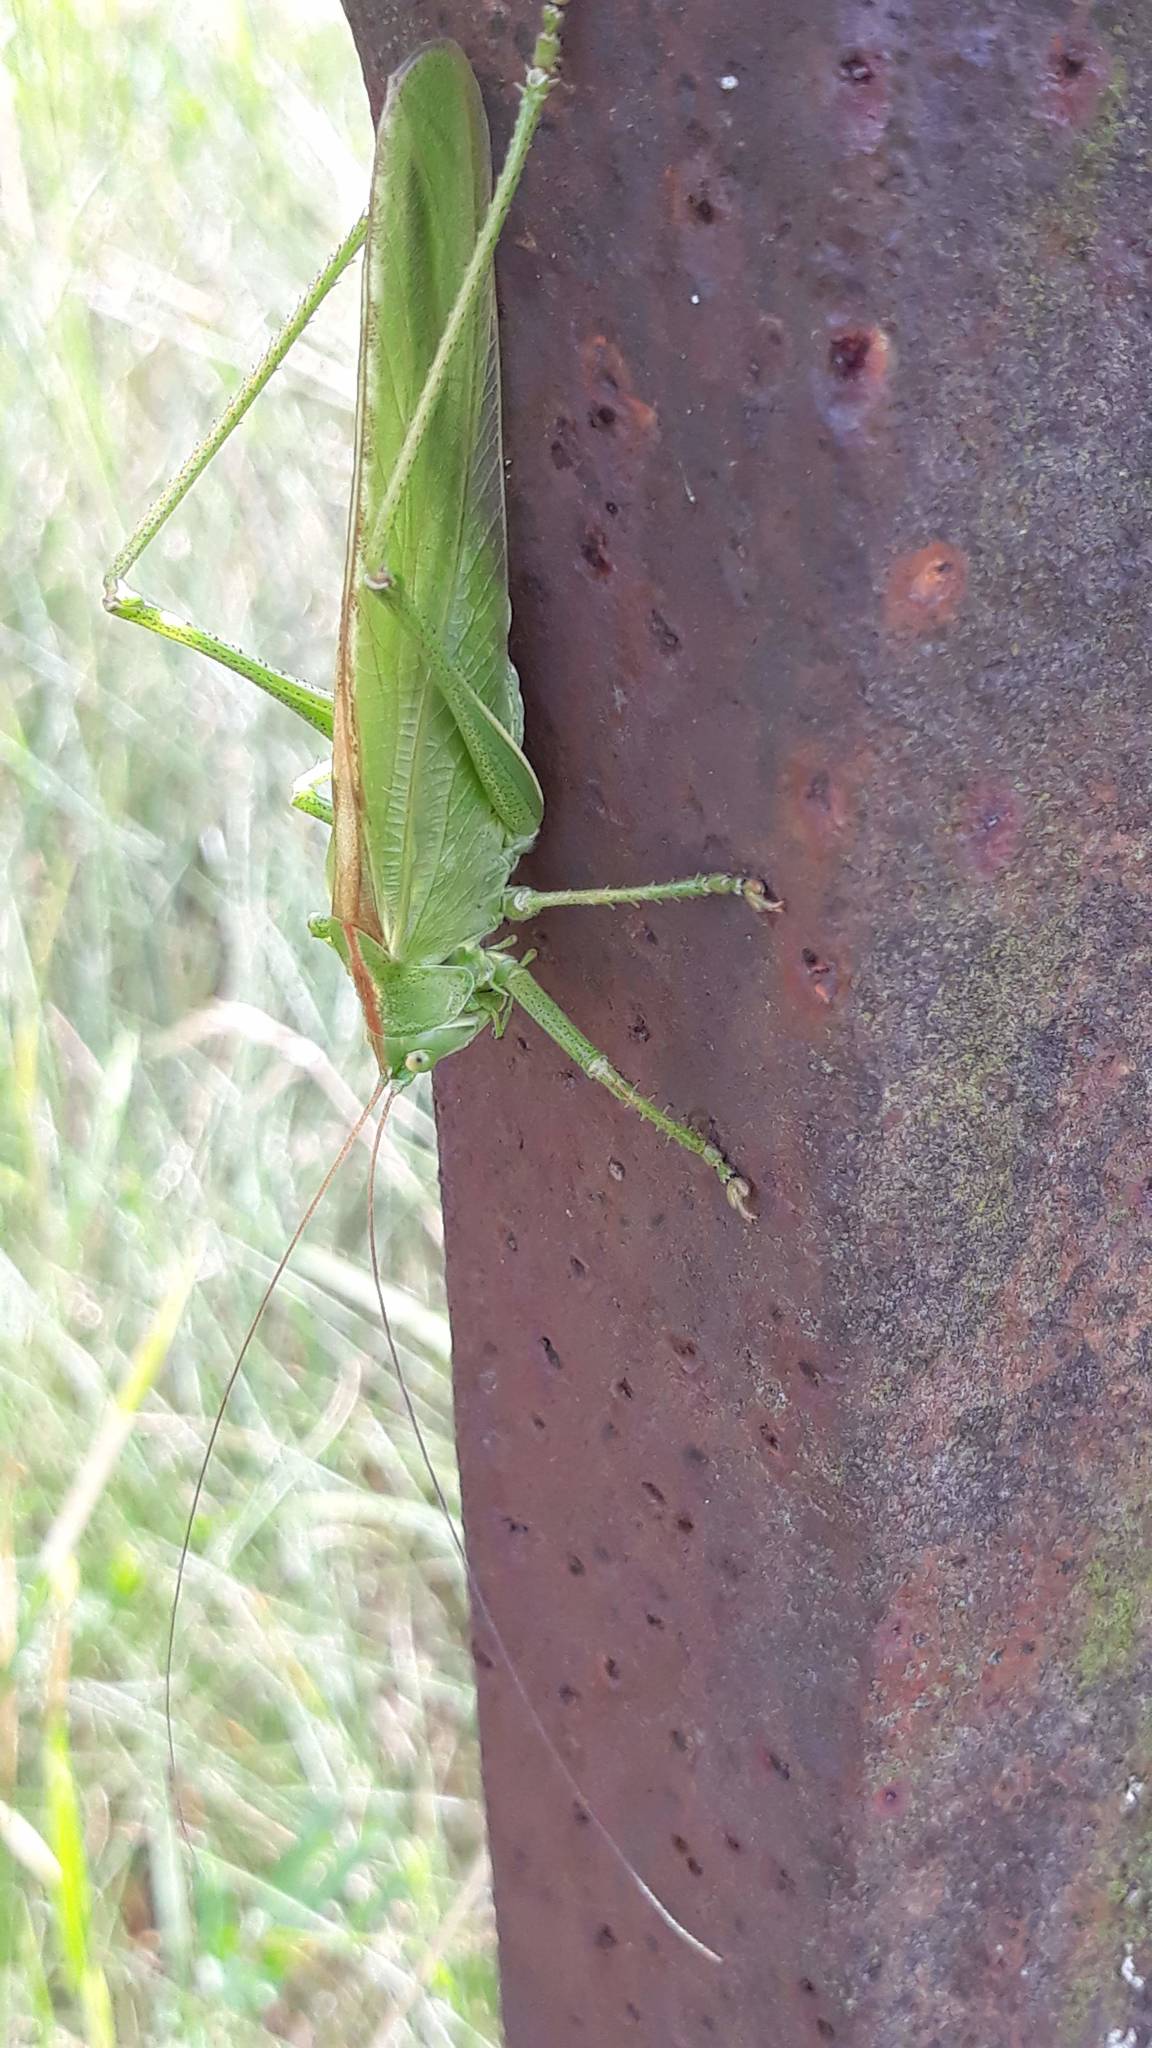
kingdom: Animalia
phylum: Arthropoda
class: Insecta
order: Orthoptera
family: Tettigoniidae
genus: Tettigonia
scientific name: Tettigonia viridissima
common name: Great green bush-cricket
